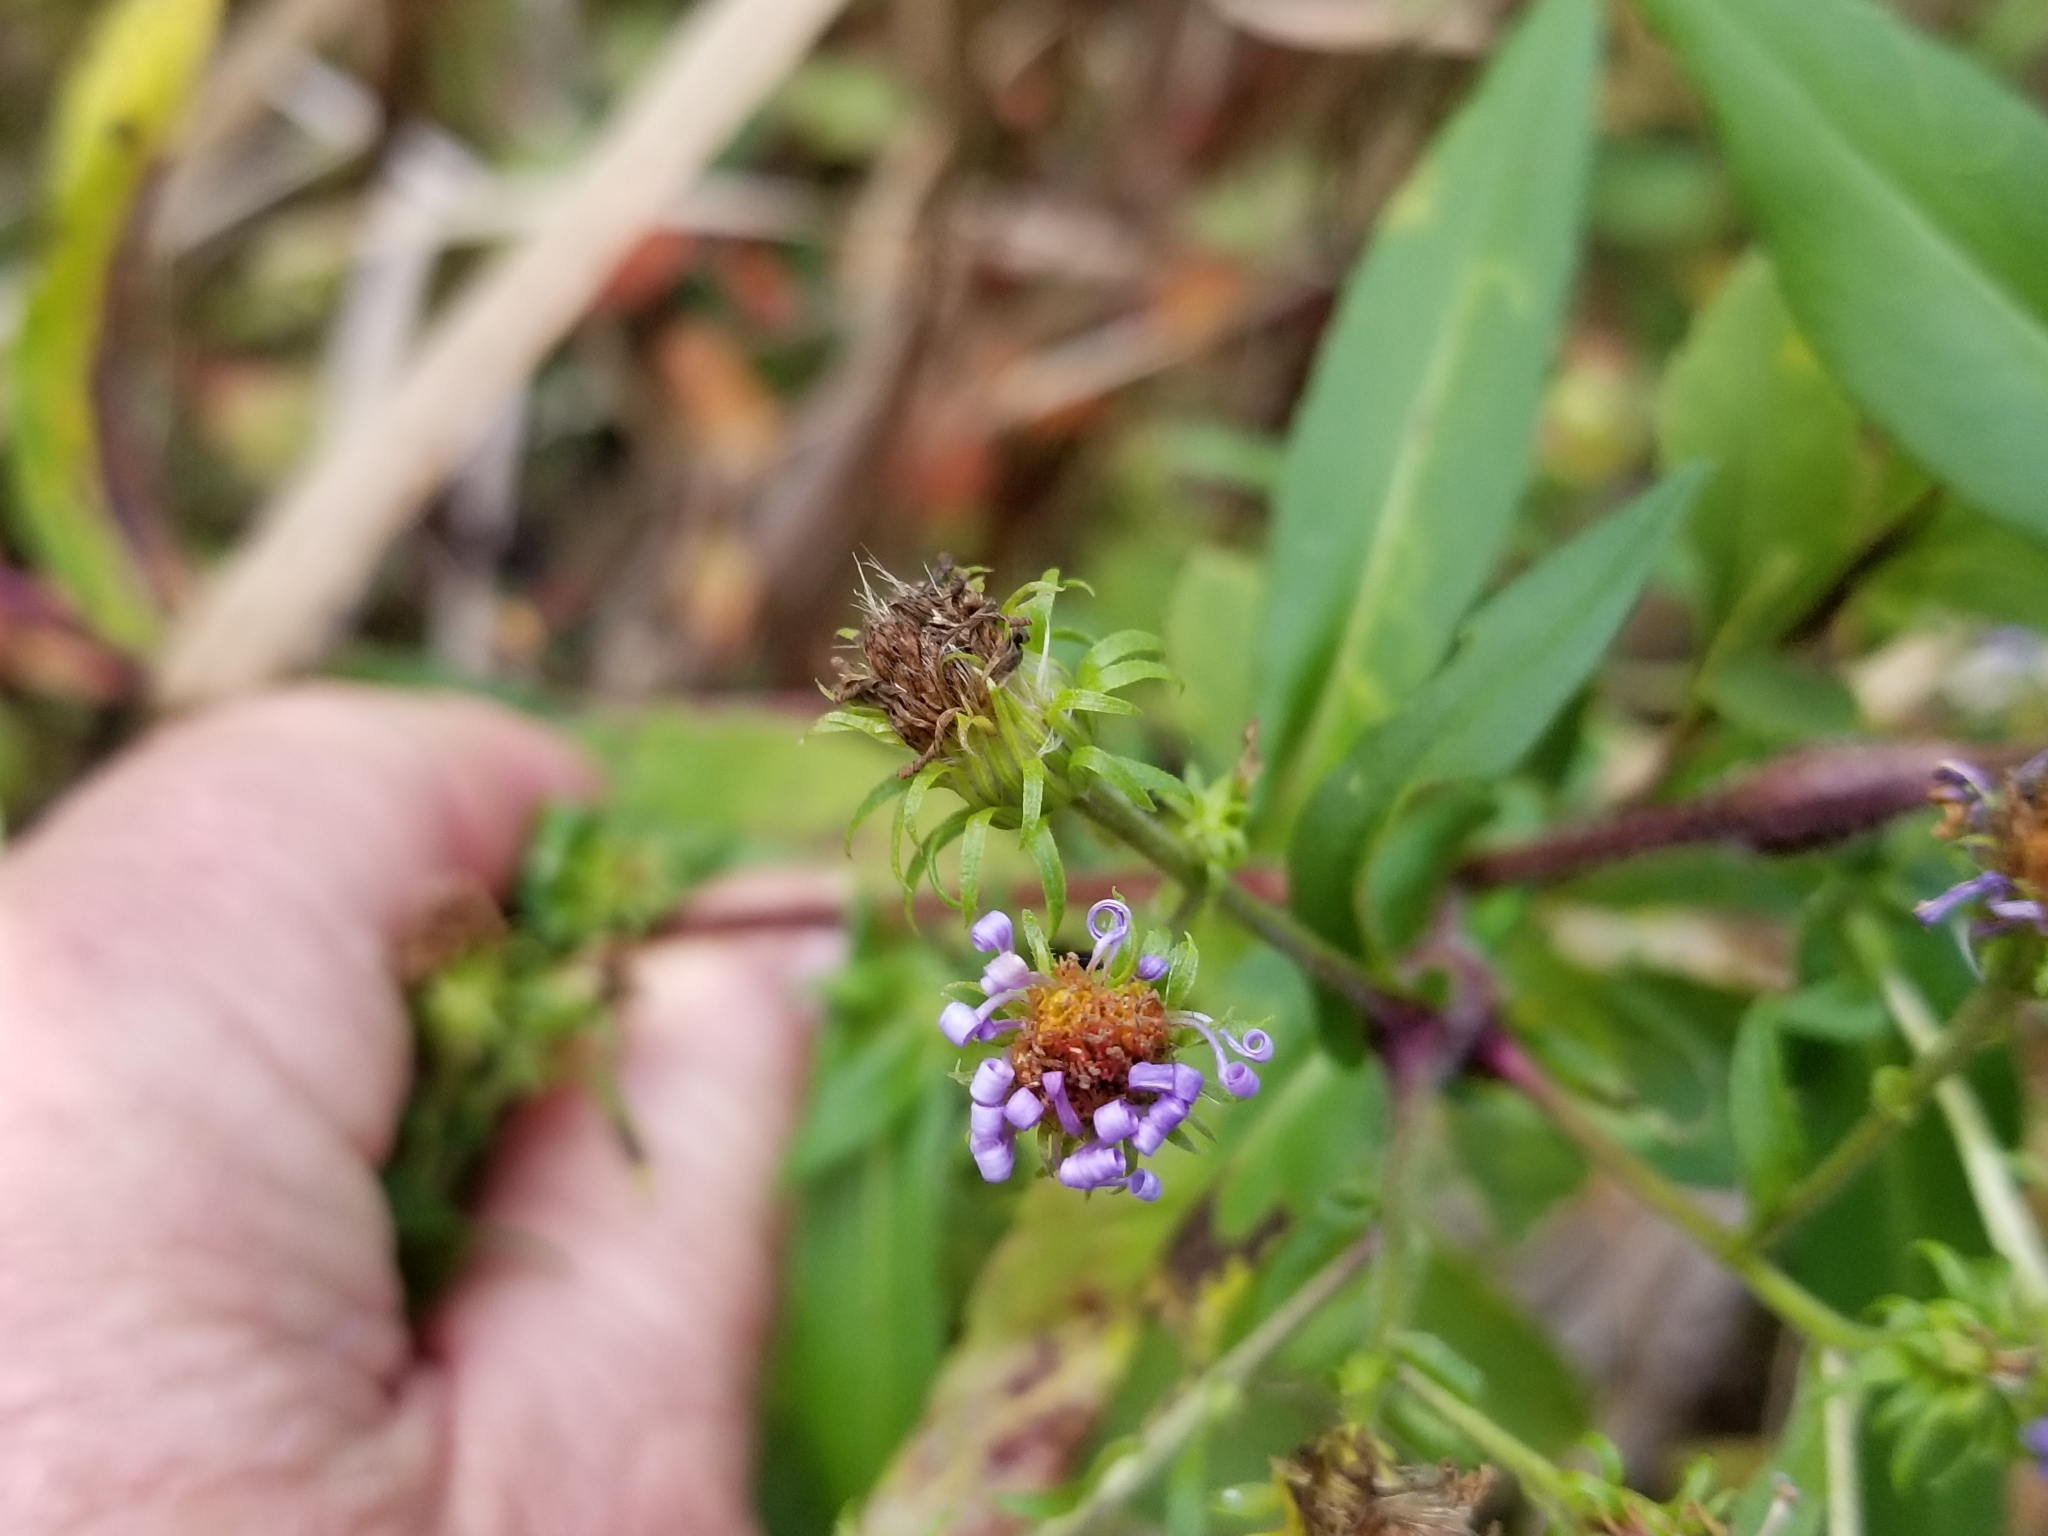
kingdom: Plantae
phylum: Tracheophyta
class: Magnoliopsida
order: Asterales
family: Asteraceae
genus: Symphyotrichum
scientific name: Symphyotrichum puniceum
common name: Bog aster
